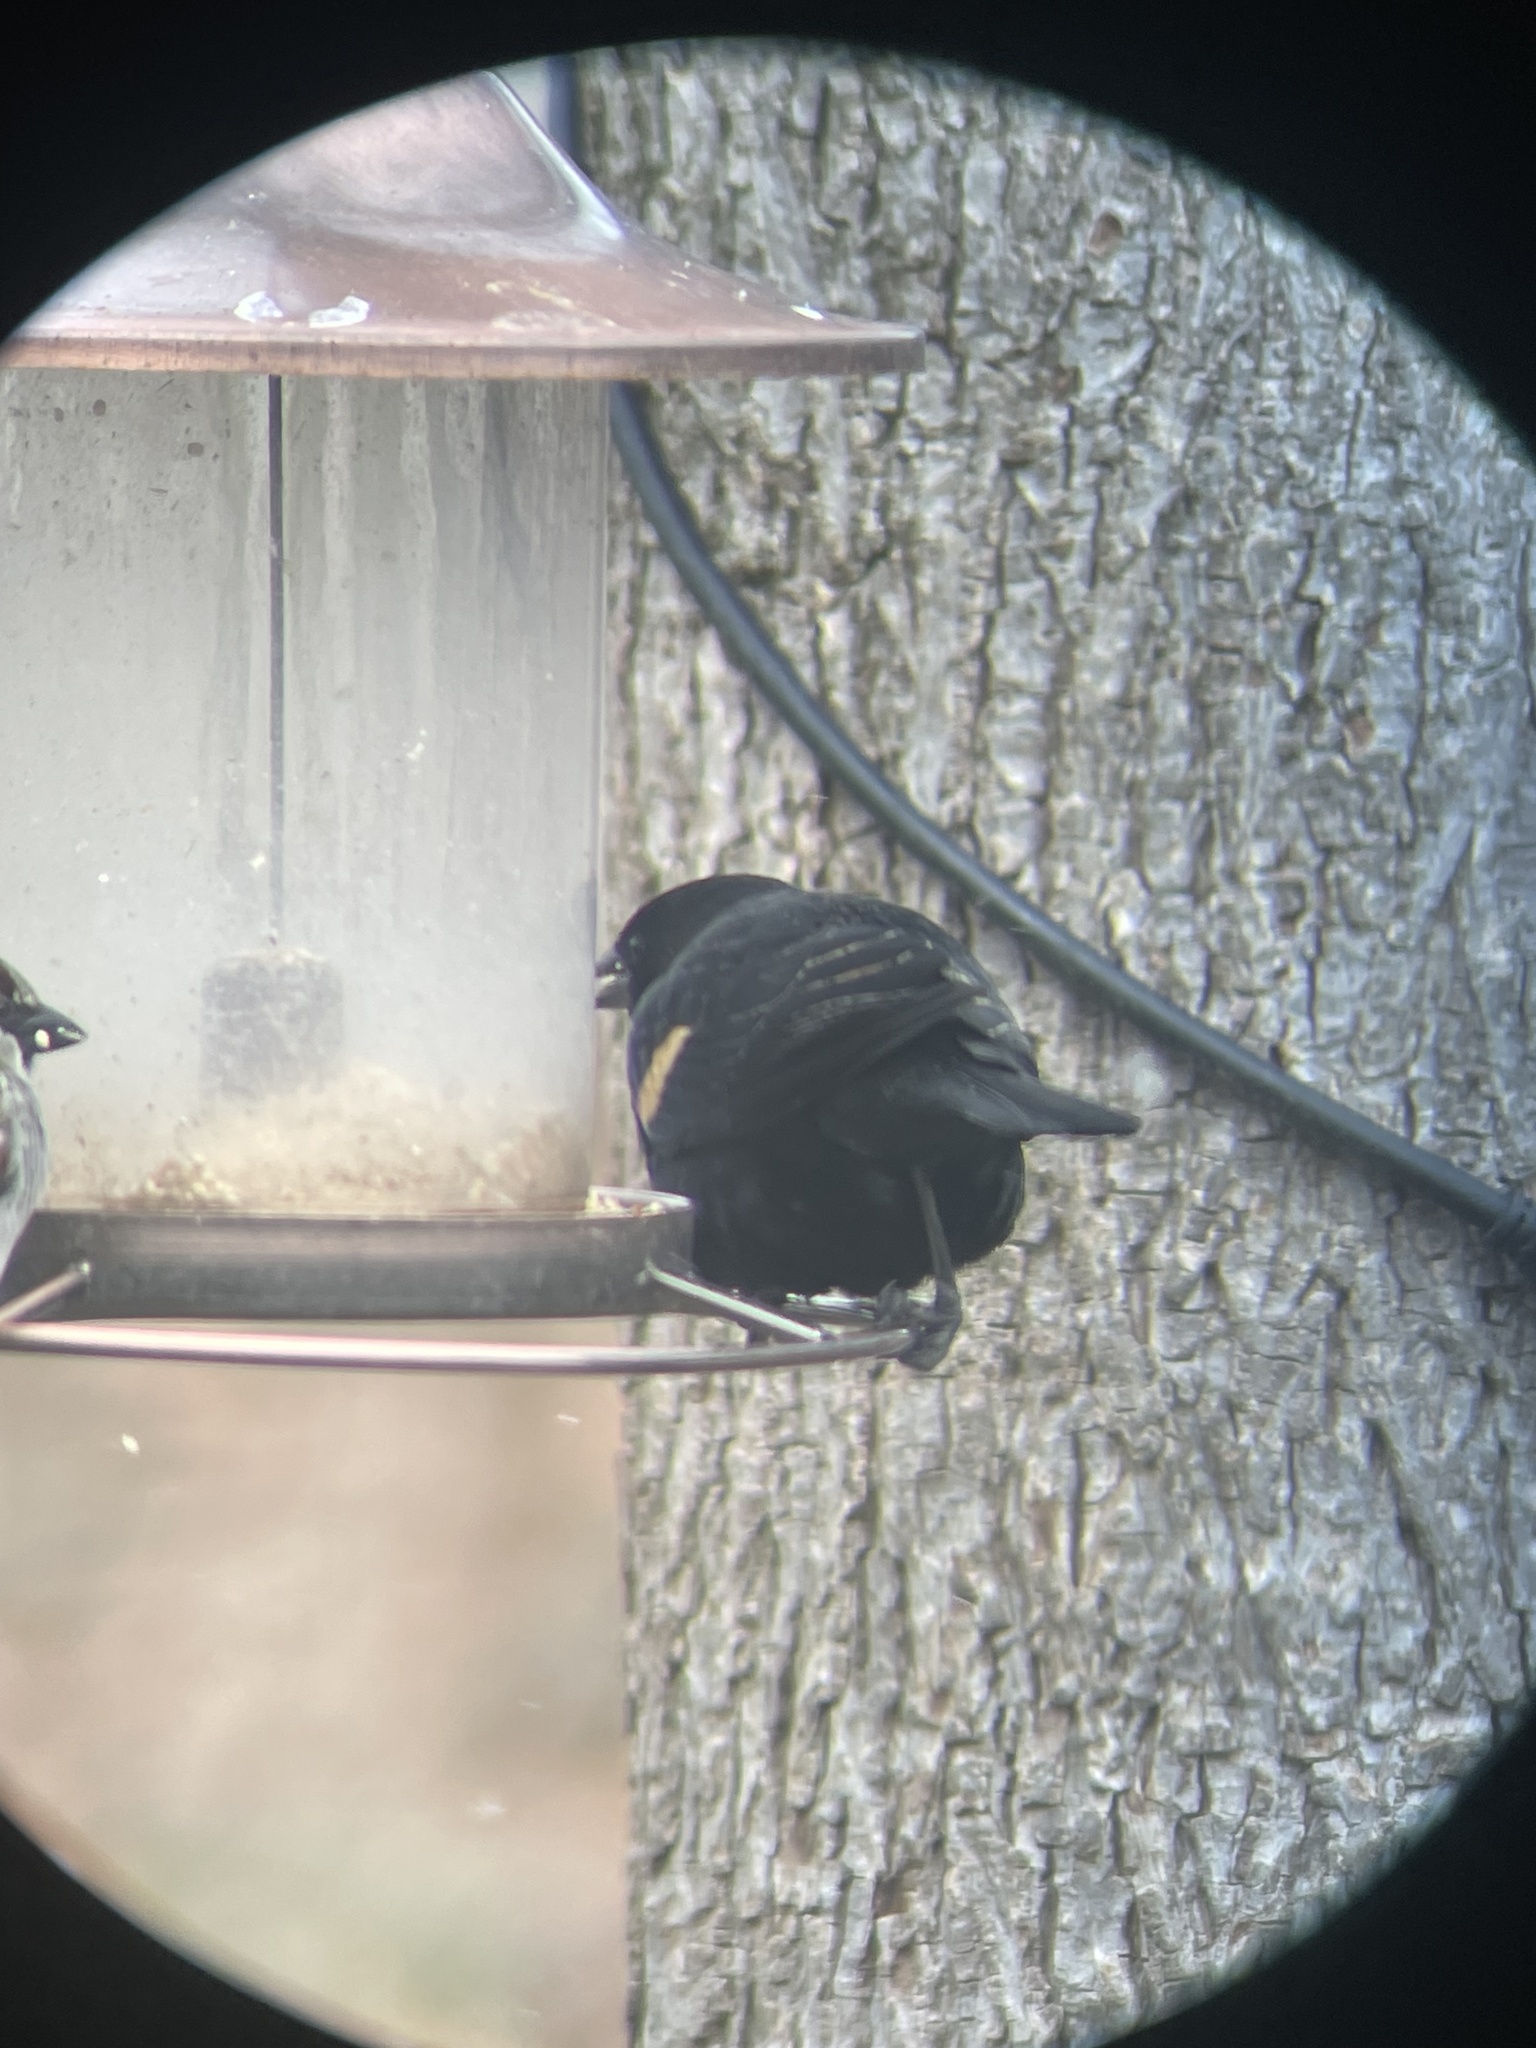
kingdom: Animalia
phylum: Chordata
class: Aves
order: Passeriformes
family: Icteridae
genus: Agelaius
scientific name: Agelaius phoeniceus
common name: Red-winged blackbird
